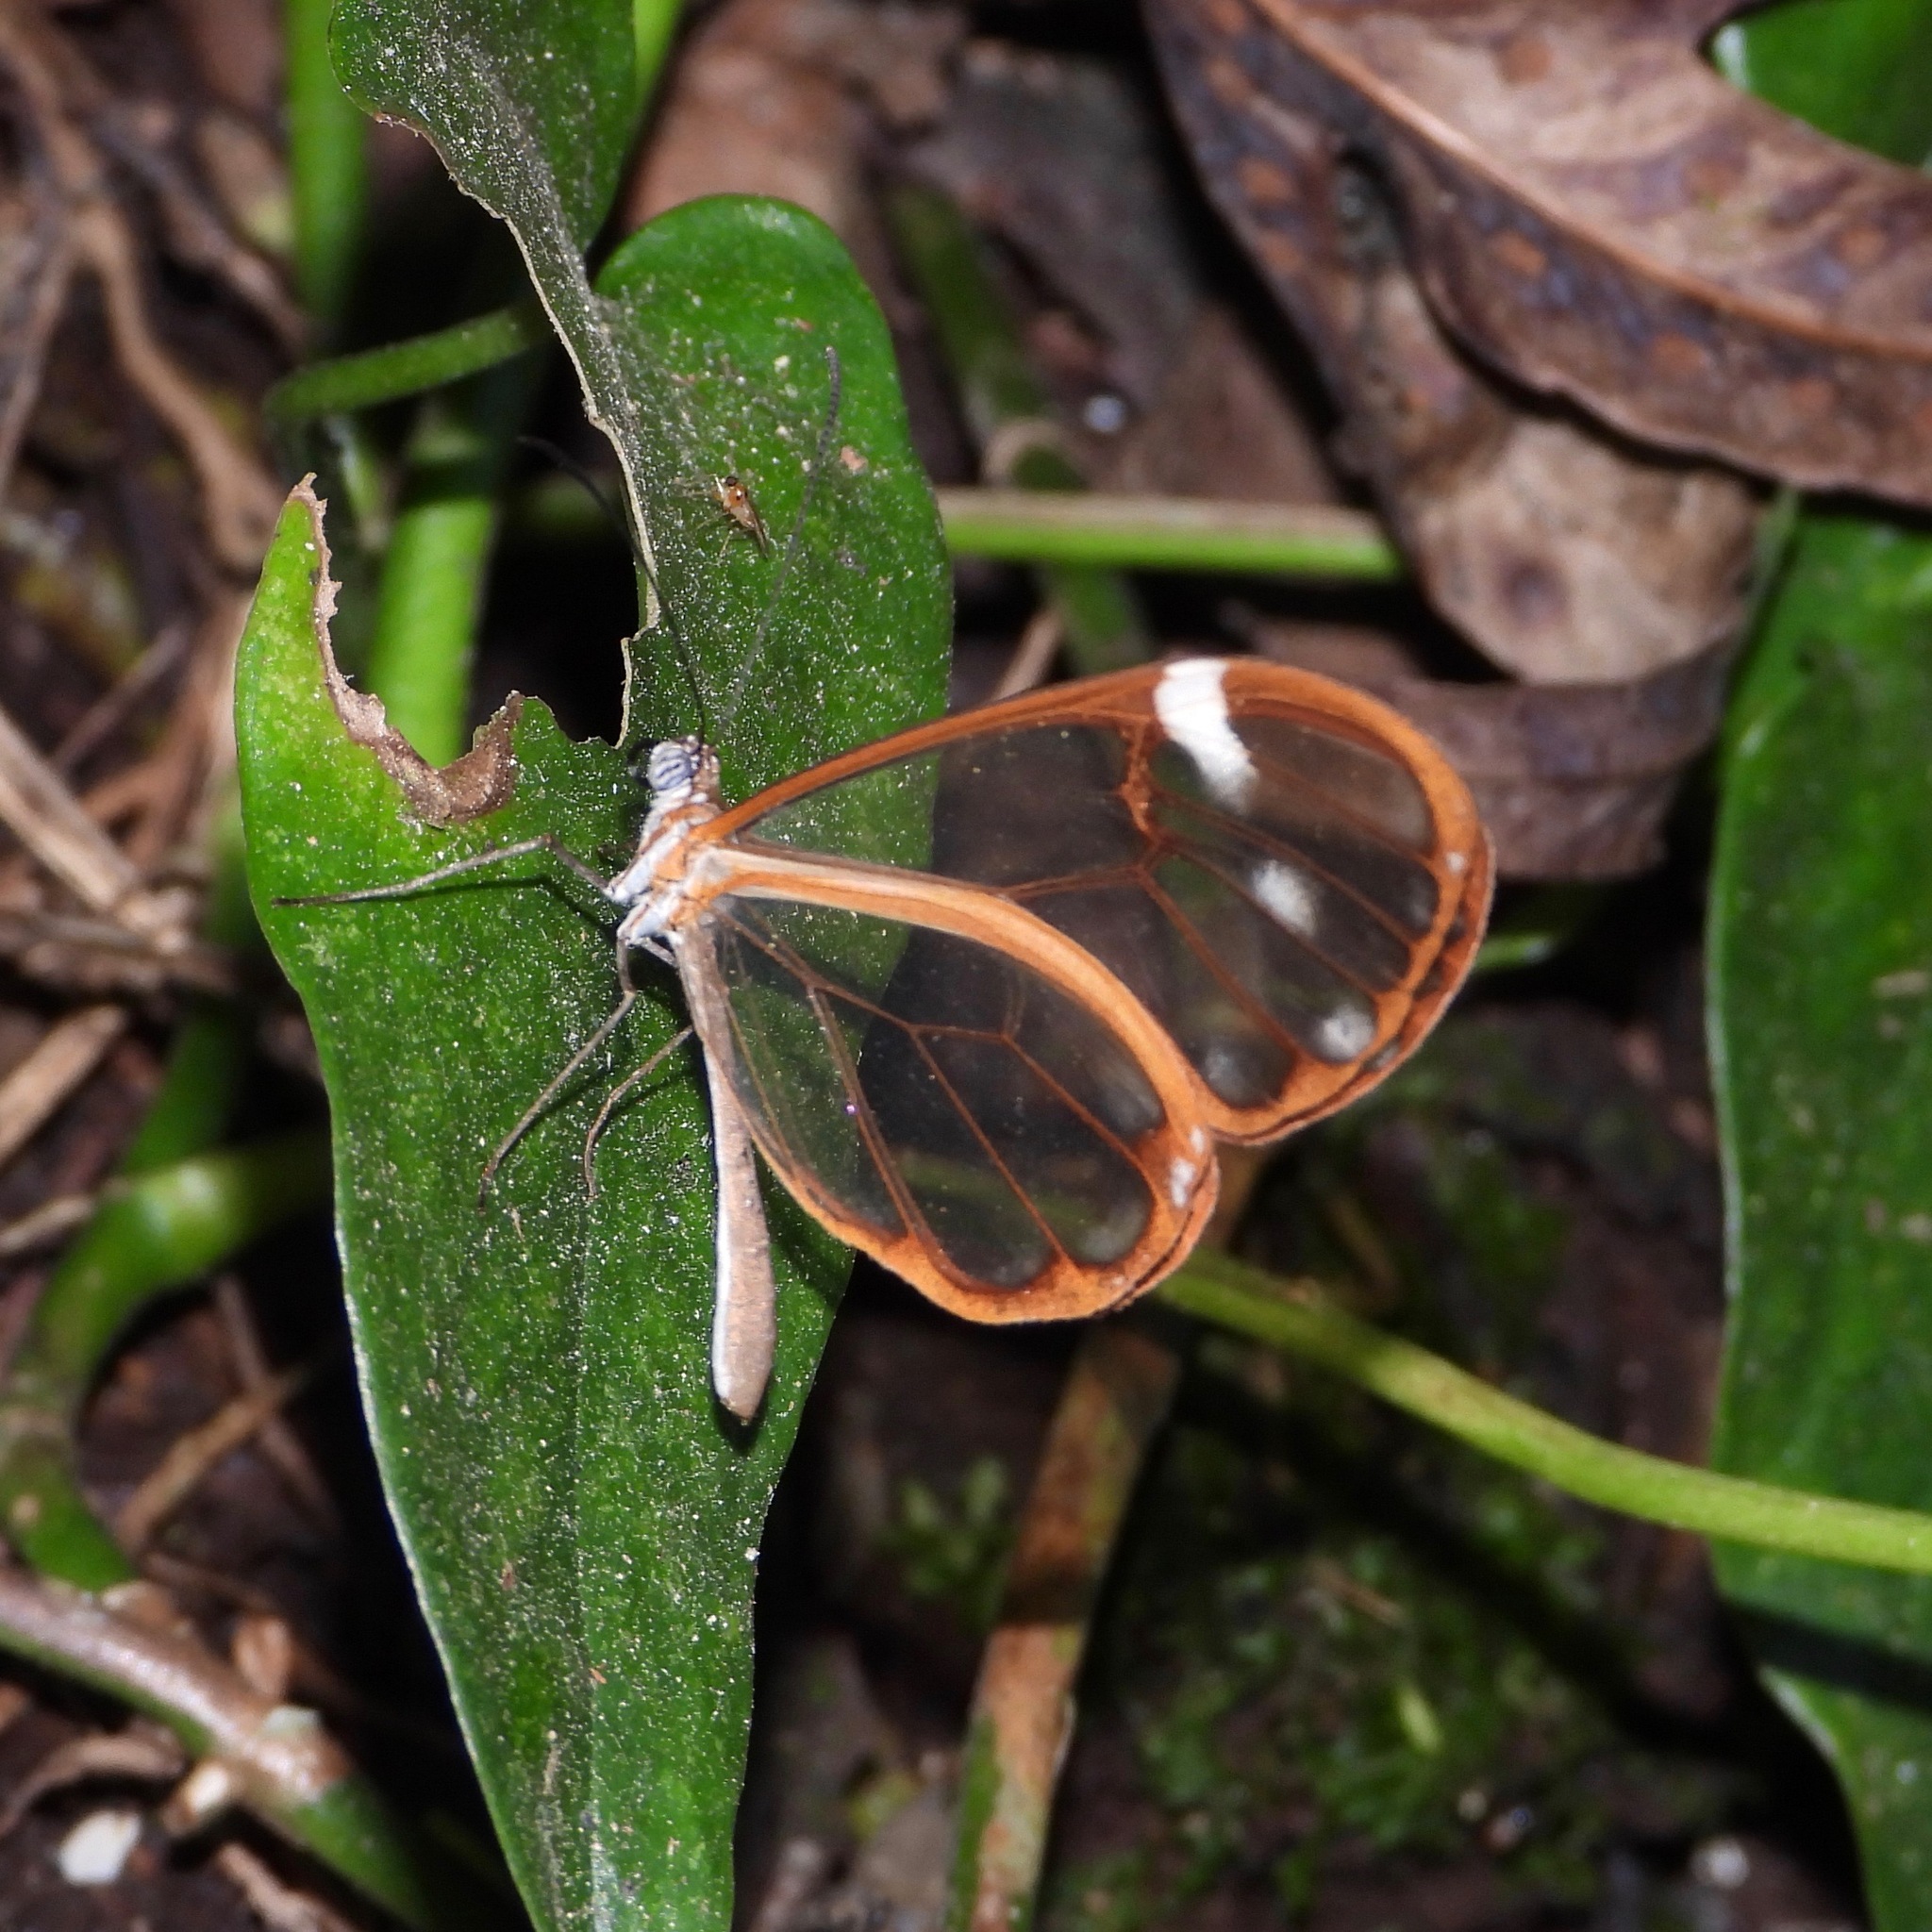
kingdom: Animalia
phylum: Arthropoda
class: Insecta
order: Lepidoptera
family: Nymphalidae
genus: Greta
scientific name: Greta annette
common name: White-spotted clearwing
